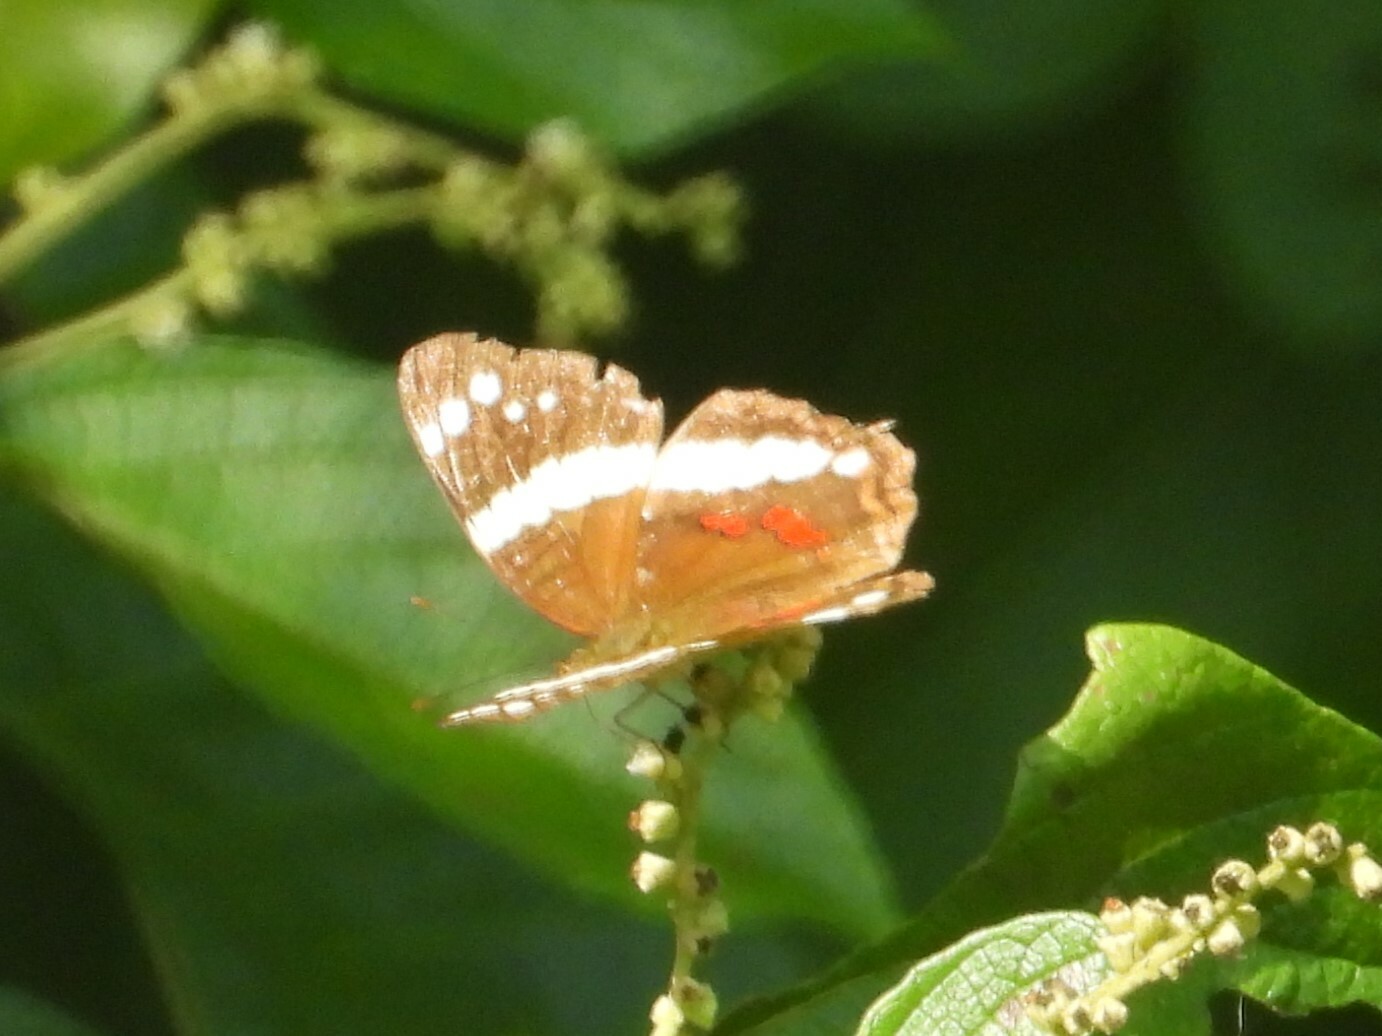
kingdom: Animalia
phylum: Arthropoda
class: Insecta
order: Lepidoptera
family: Nymphalidae
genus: Anartia
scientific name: Anartia fatima
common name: Banded peacock
